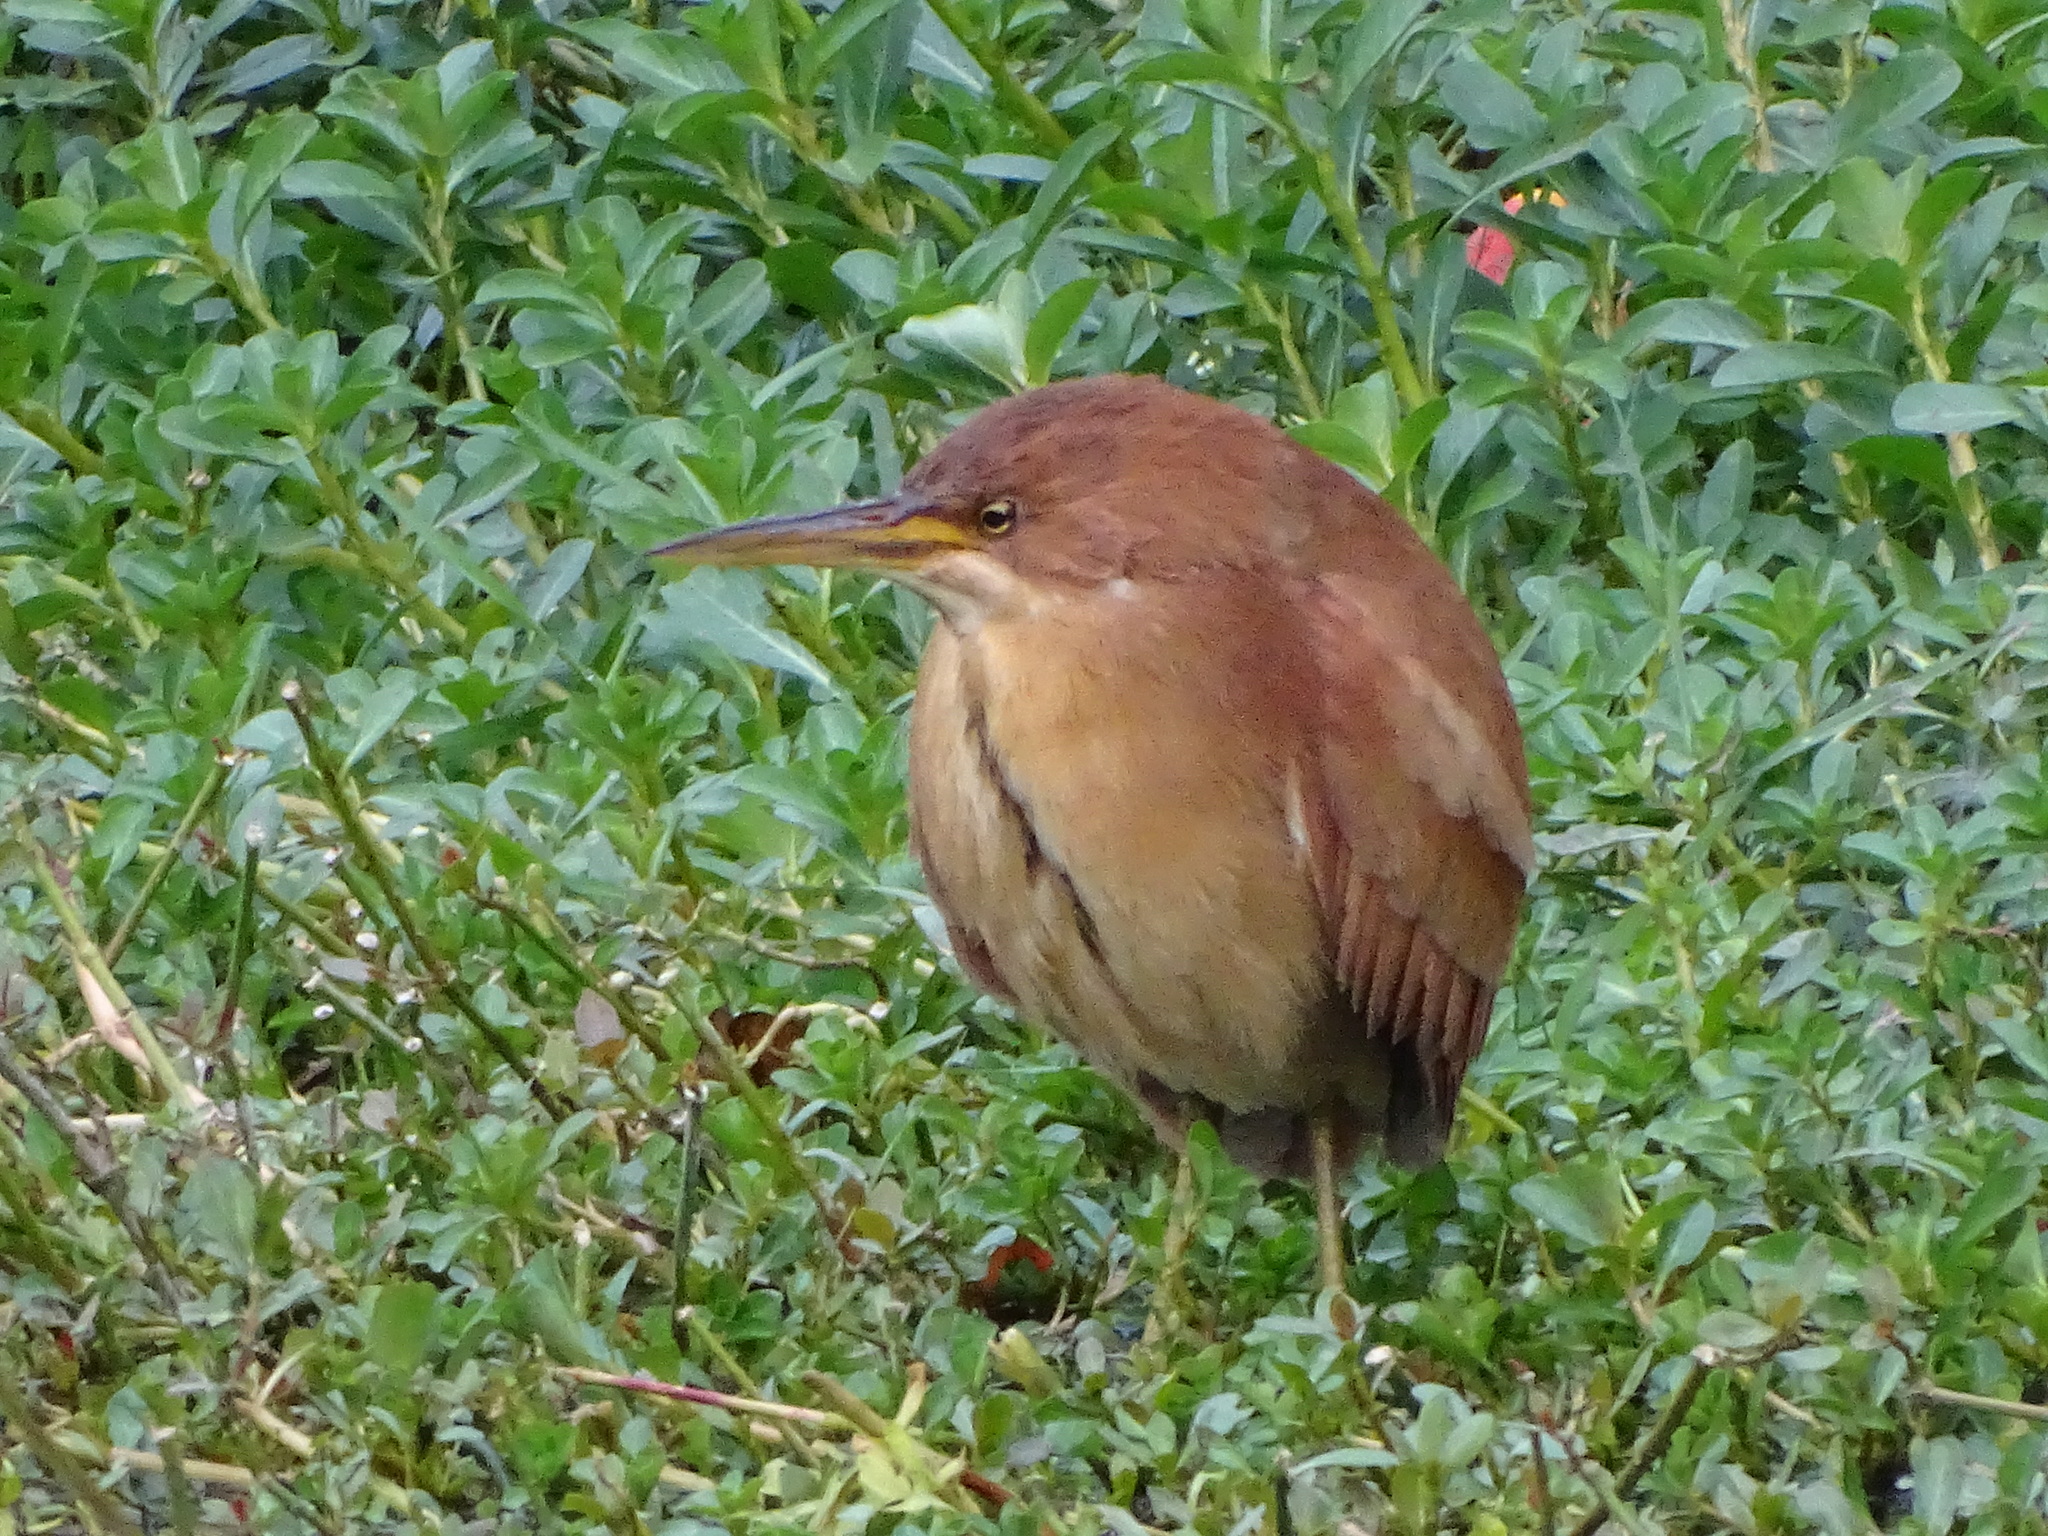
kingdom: Animalia
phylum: Chordata
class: Aves
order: Pelecaniformes
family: Ardeidae
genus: Ixobrychus
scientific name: Ixobrychus cinnamomeus
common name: Cinnamon bittern
